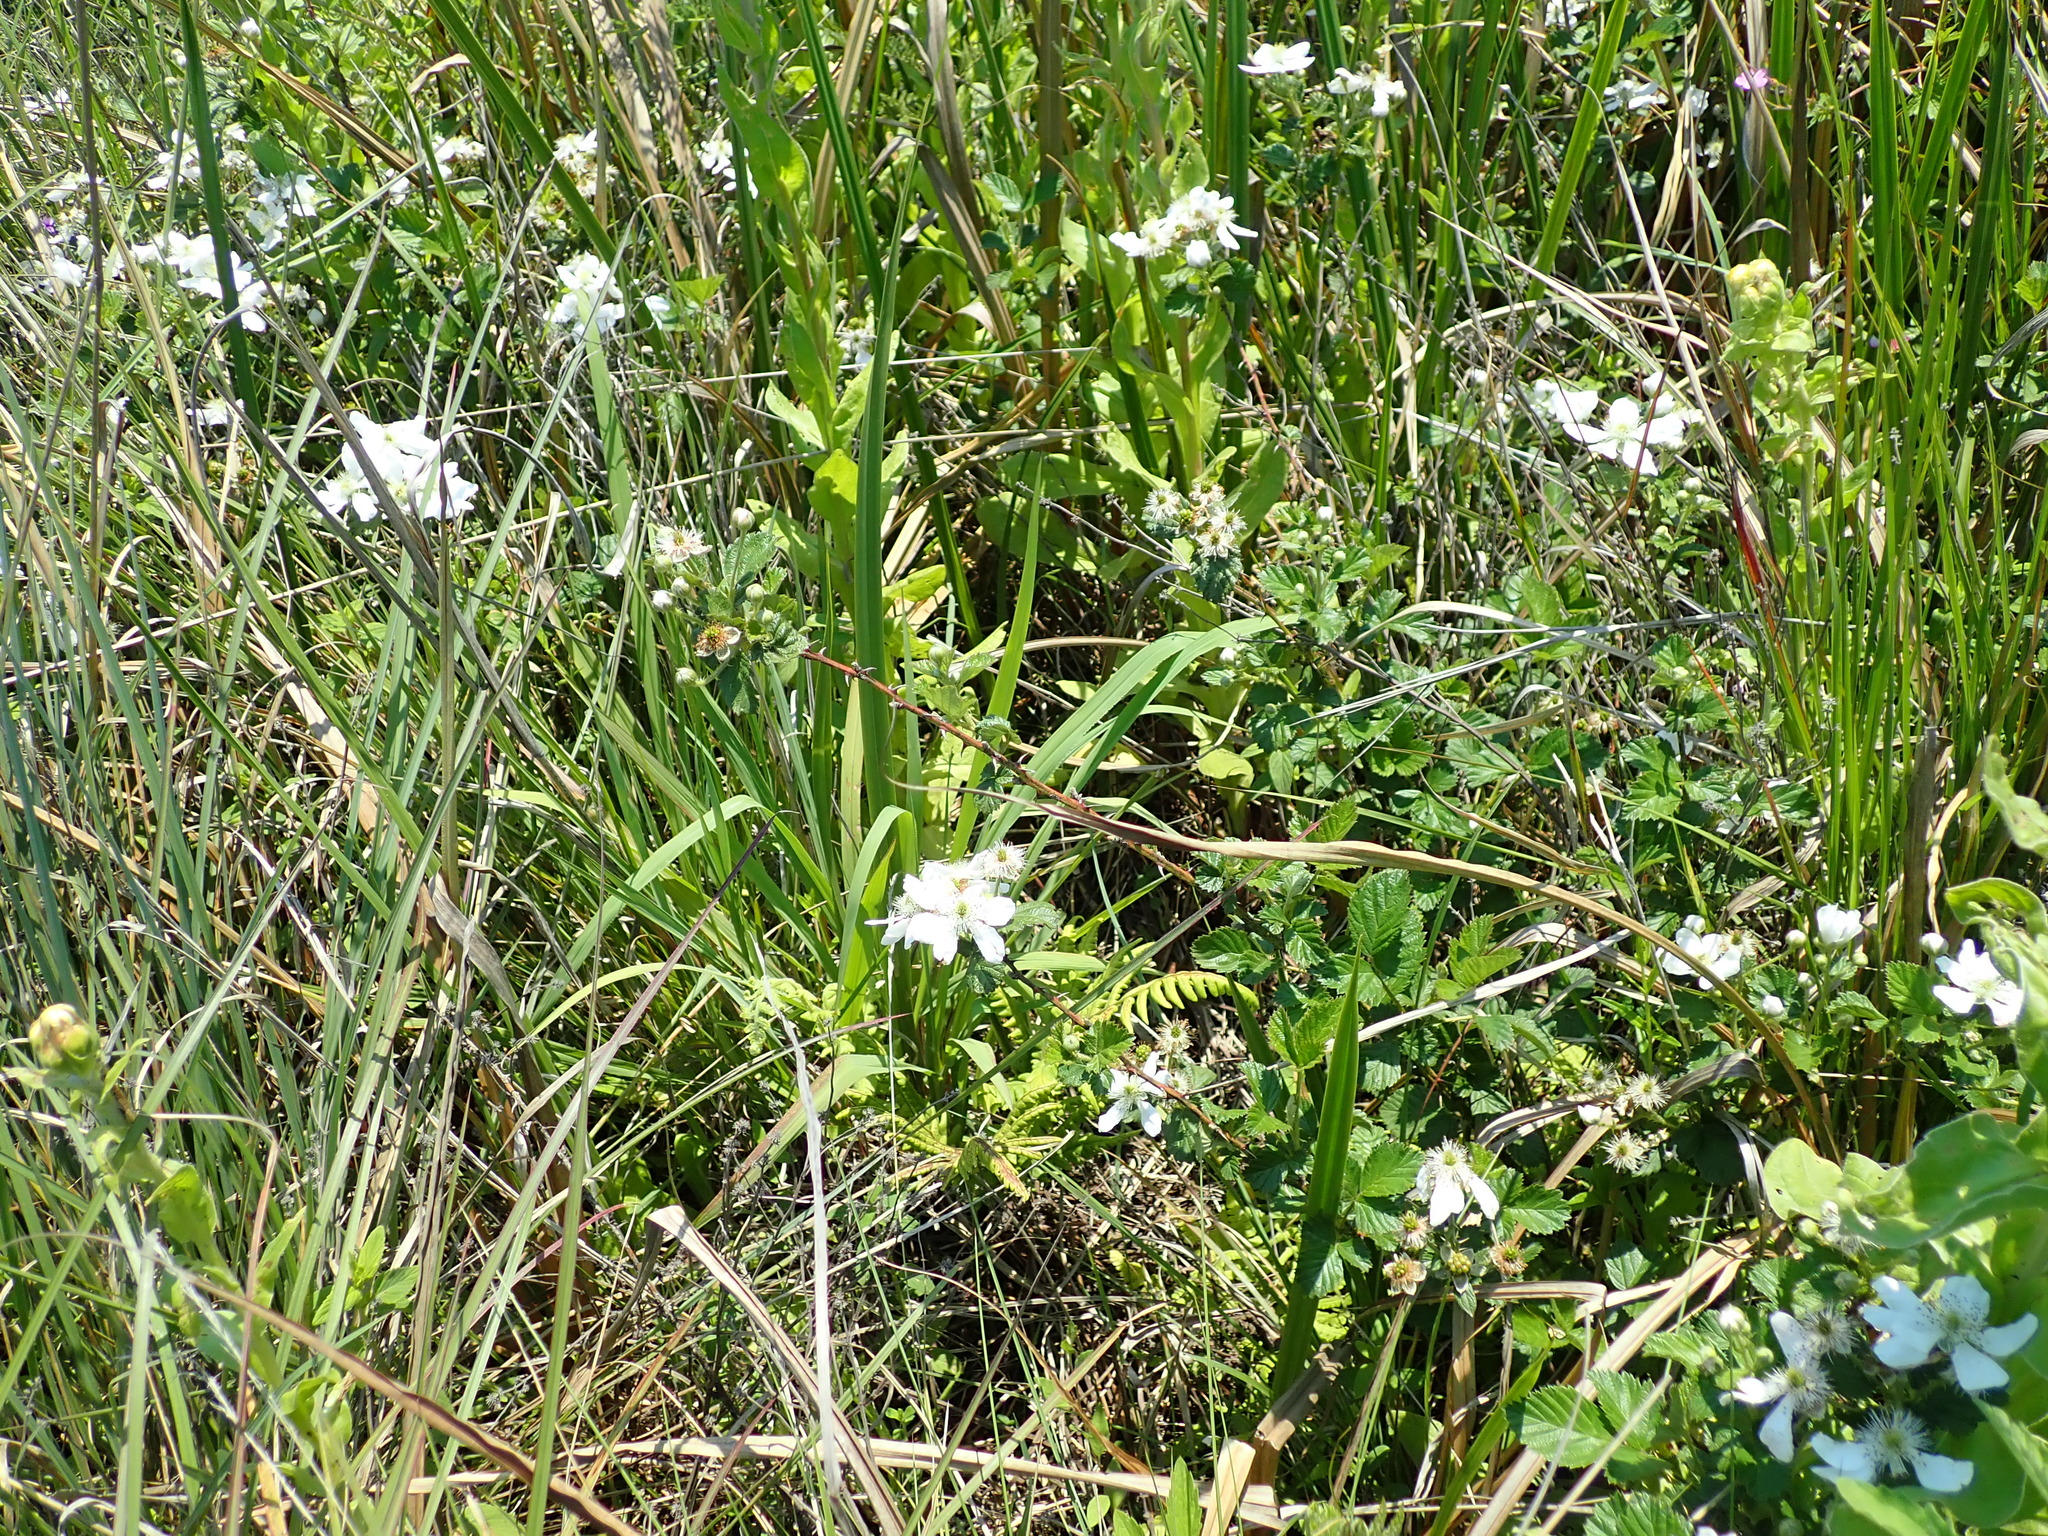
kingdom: Plantae
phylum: Tracheophyta
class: Magnoliopsida
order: Rosales
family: Rosaceae
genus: Rubus
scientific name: Rubus cuneifolius
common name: American bramble
